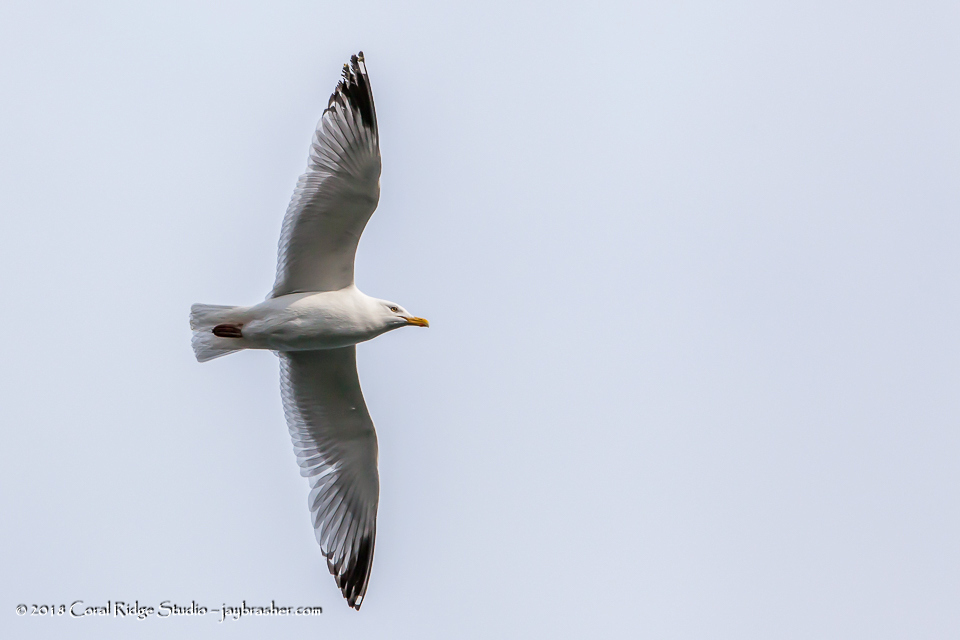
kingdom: Animalia
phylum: Chordata
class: Aves
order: Charadriiformes
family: Laridae
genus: Larus
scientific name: Larus argentatus
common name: Herring gull
